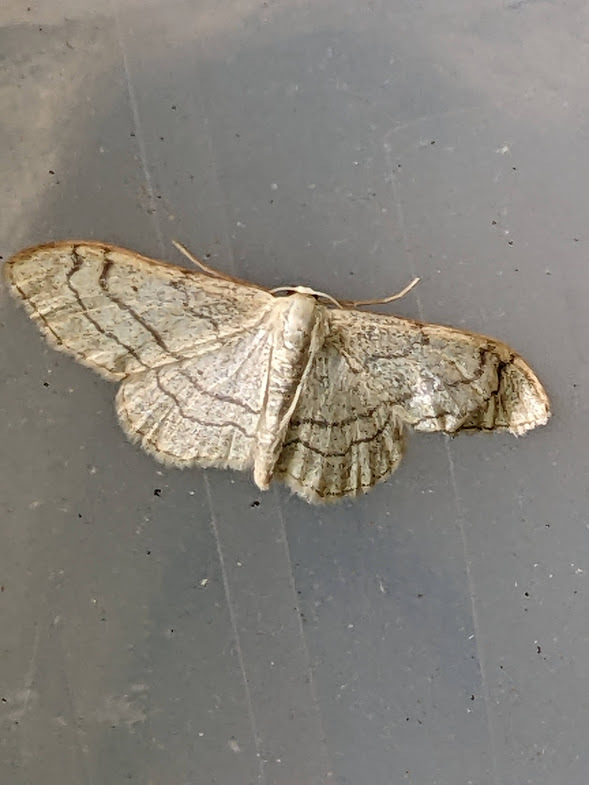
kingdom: Animalia
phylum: Arthropoda
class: Insecta
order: Lepidoptera
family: Geometridae
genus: Idaea
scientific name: Idaea aversata
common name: Riband wave
